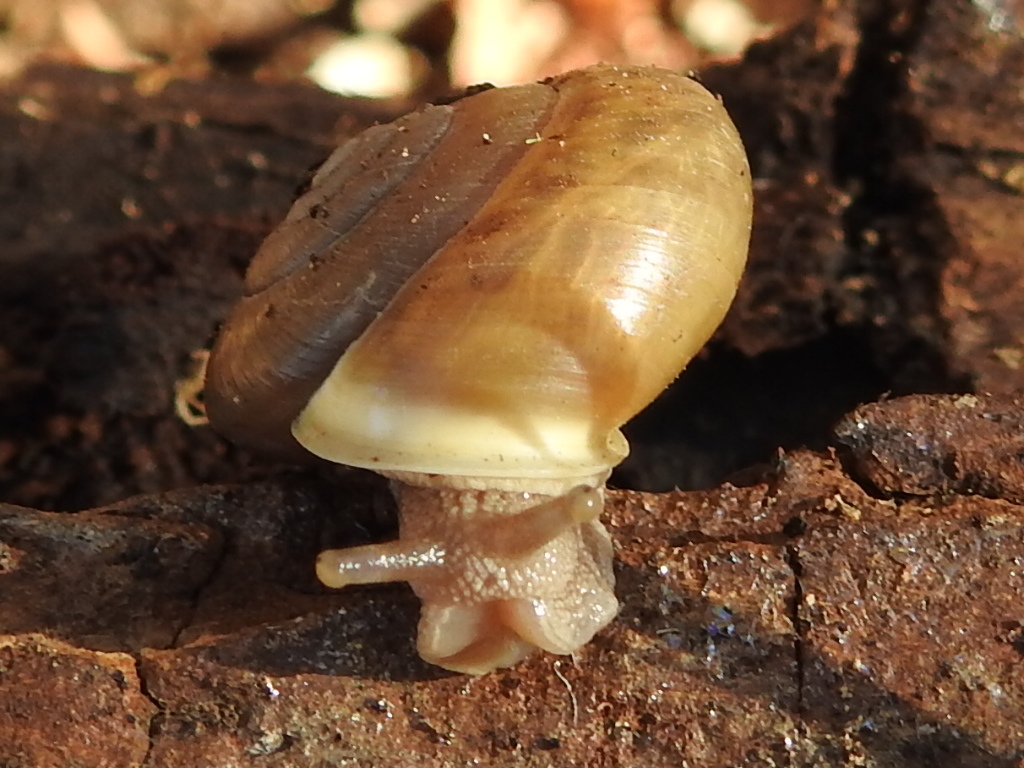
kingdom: Animalia
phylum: Mollusca
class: Gastropoda
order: Stylommatophora
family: Polygyridae
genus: Patera
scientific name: Patera roemeri
